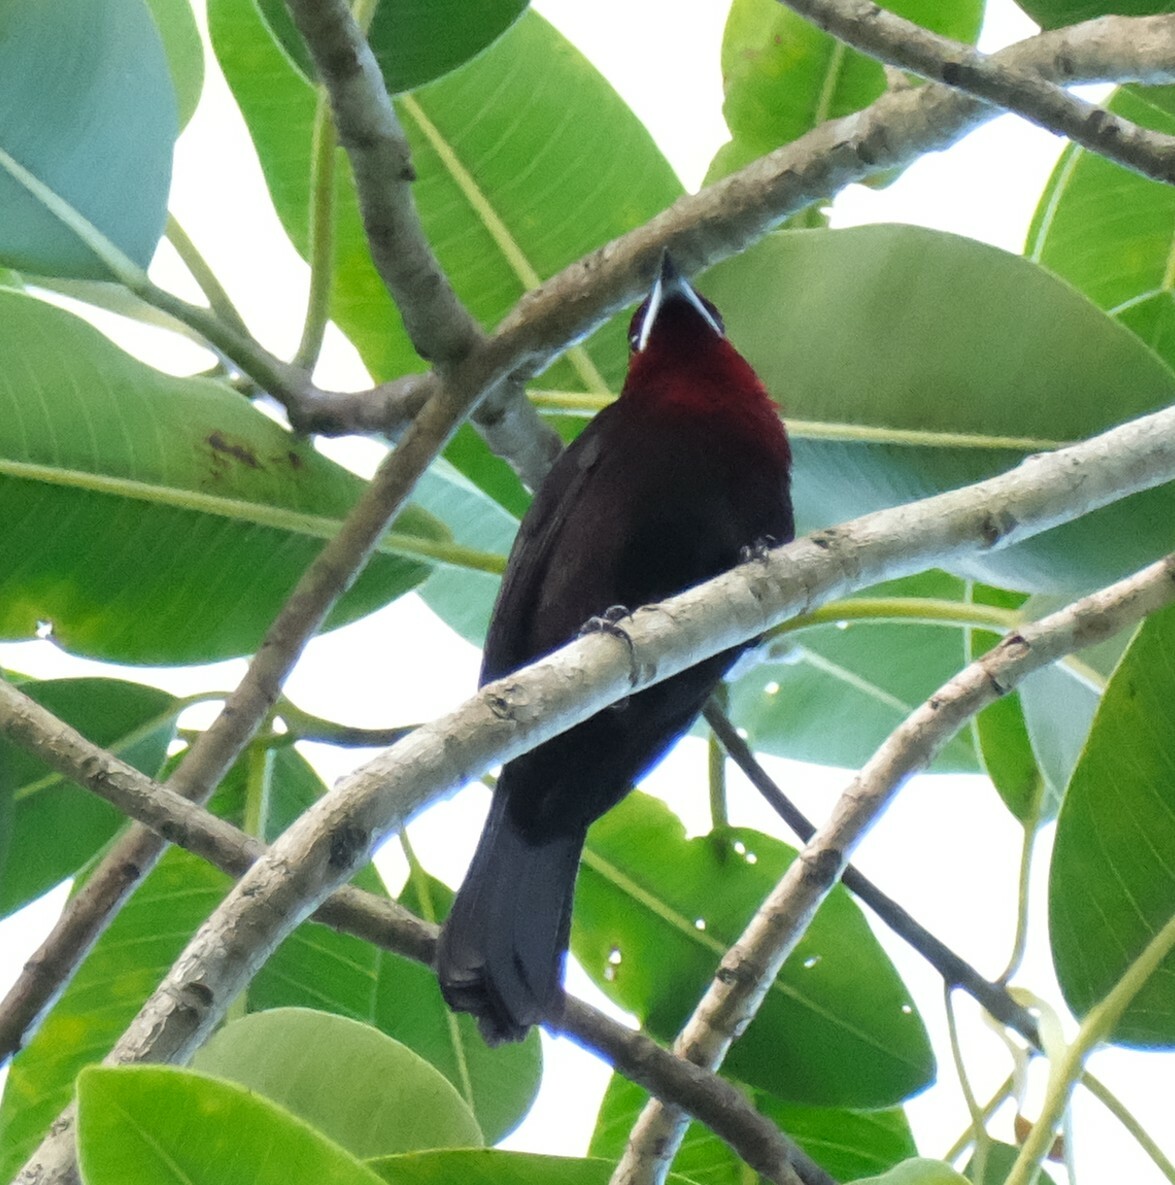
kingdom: Animalia
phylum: Chordata
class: Aves
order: Passeriformes
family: Thraupidae
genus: Ramphocelus
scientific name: Ramphocelus carbo
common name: Silver-beaked tanager
